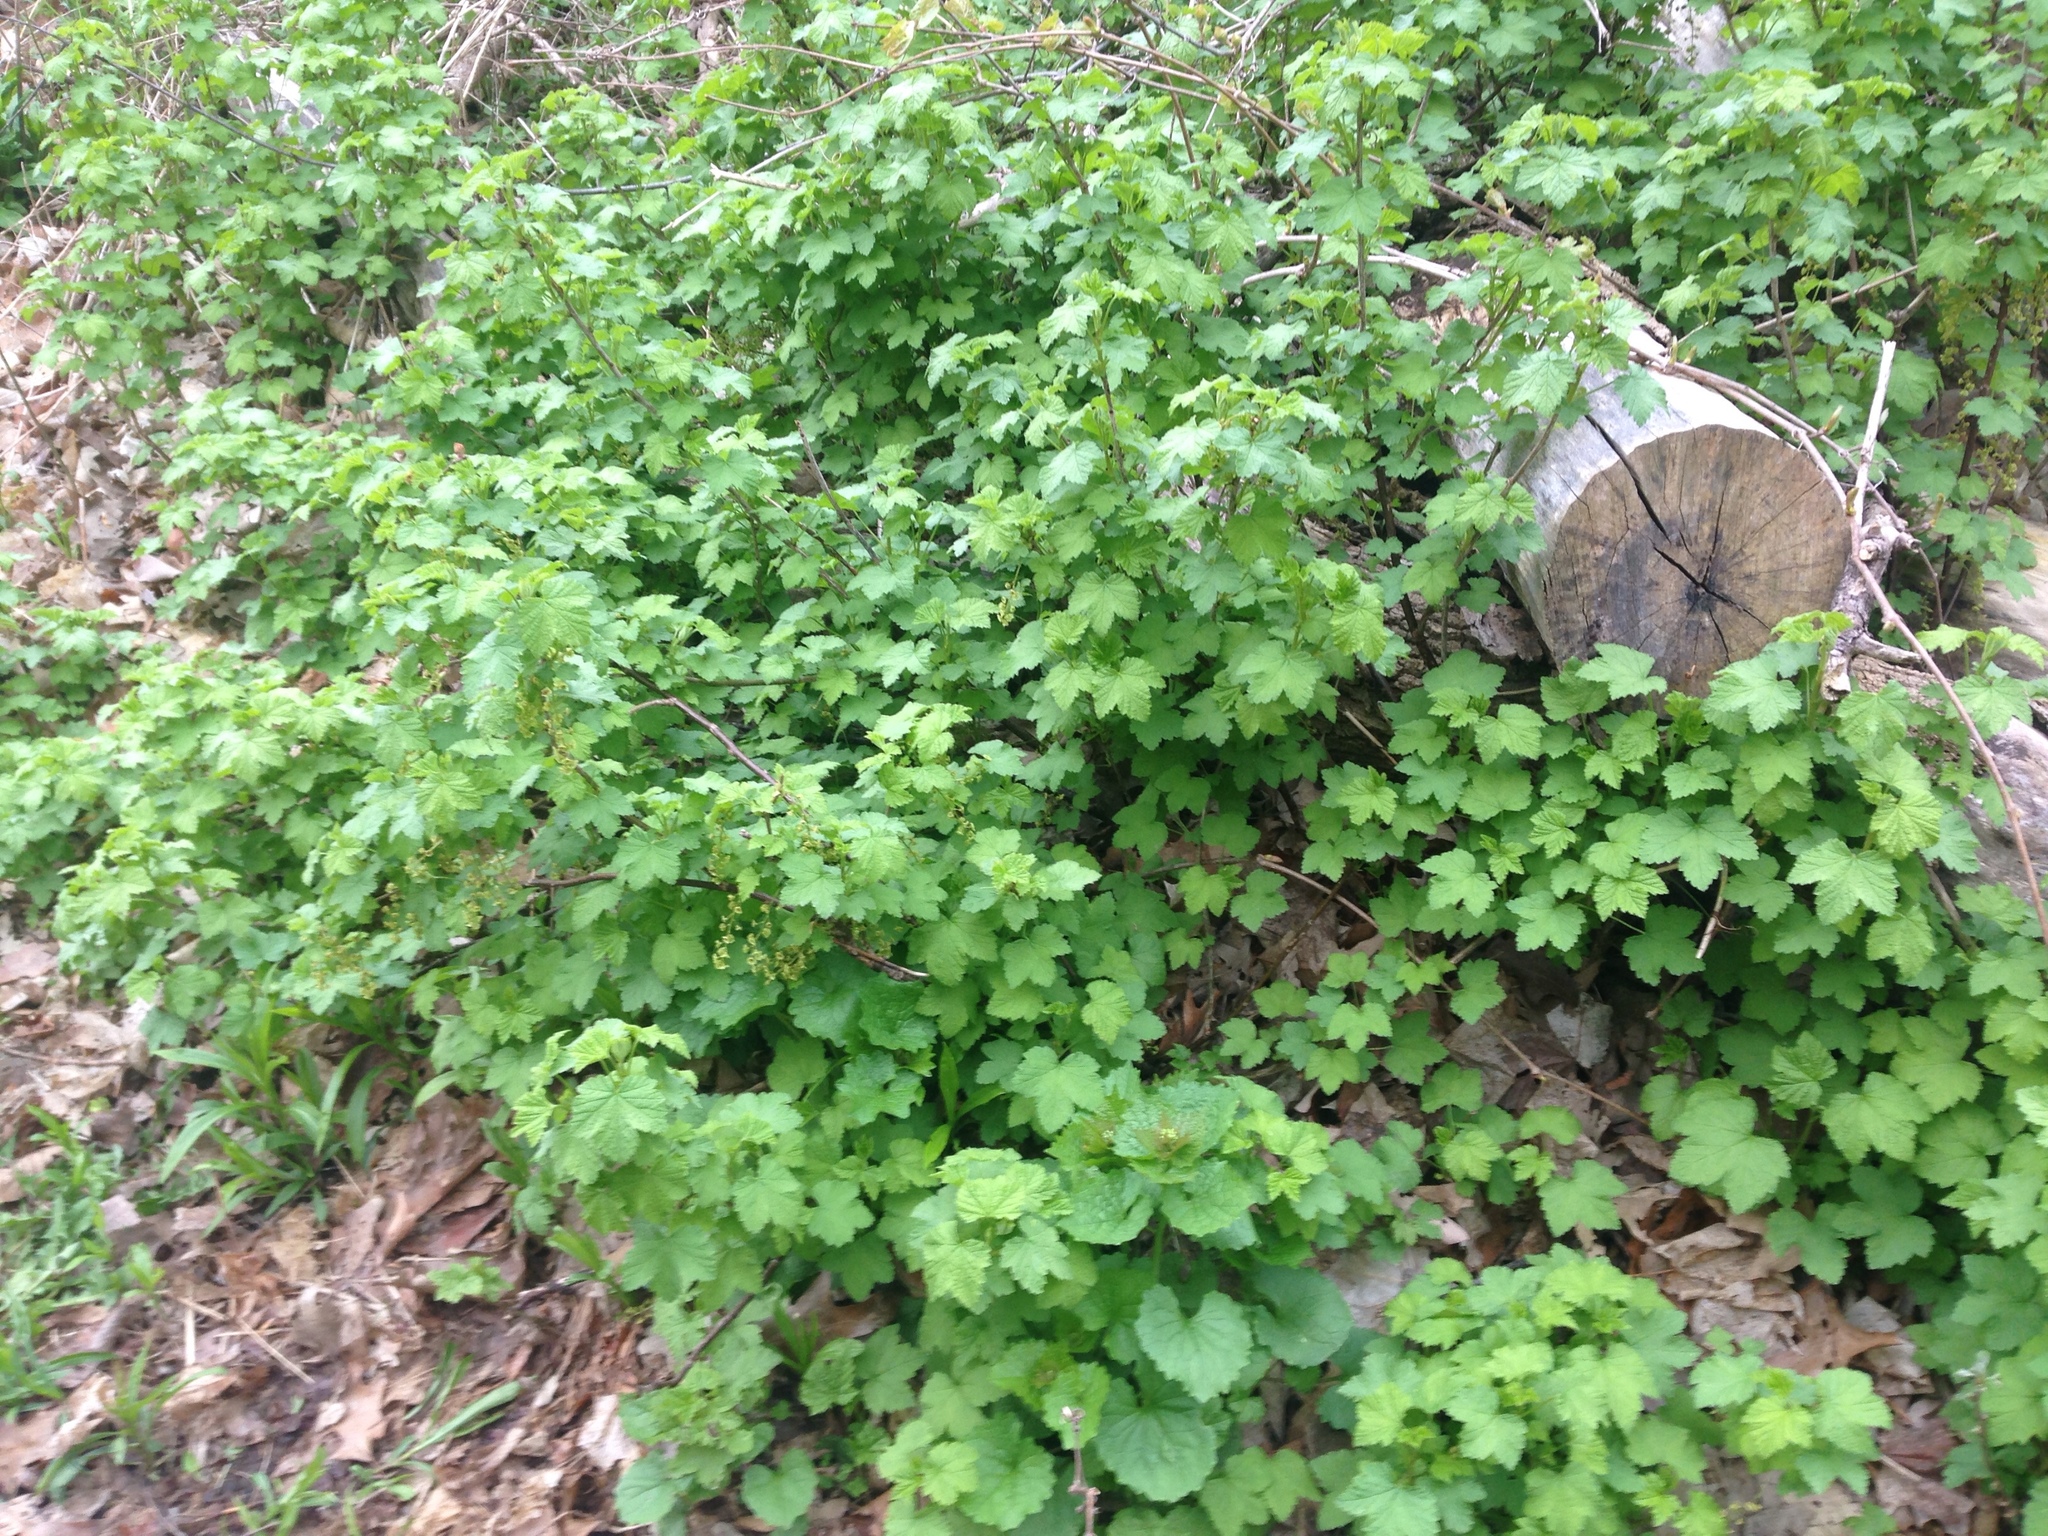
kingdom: Plantae
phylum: Tracheophyta
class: Magnoliopsida
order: Saxifragales
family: Grossulariaceae
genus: Ribes
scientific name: Ribes rubrum
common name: Red currant
